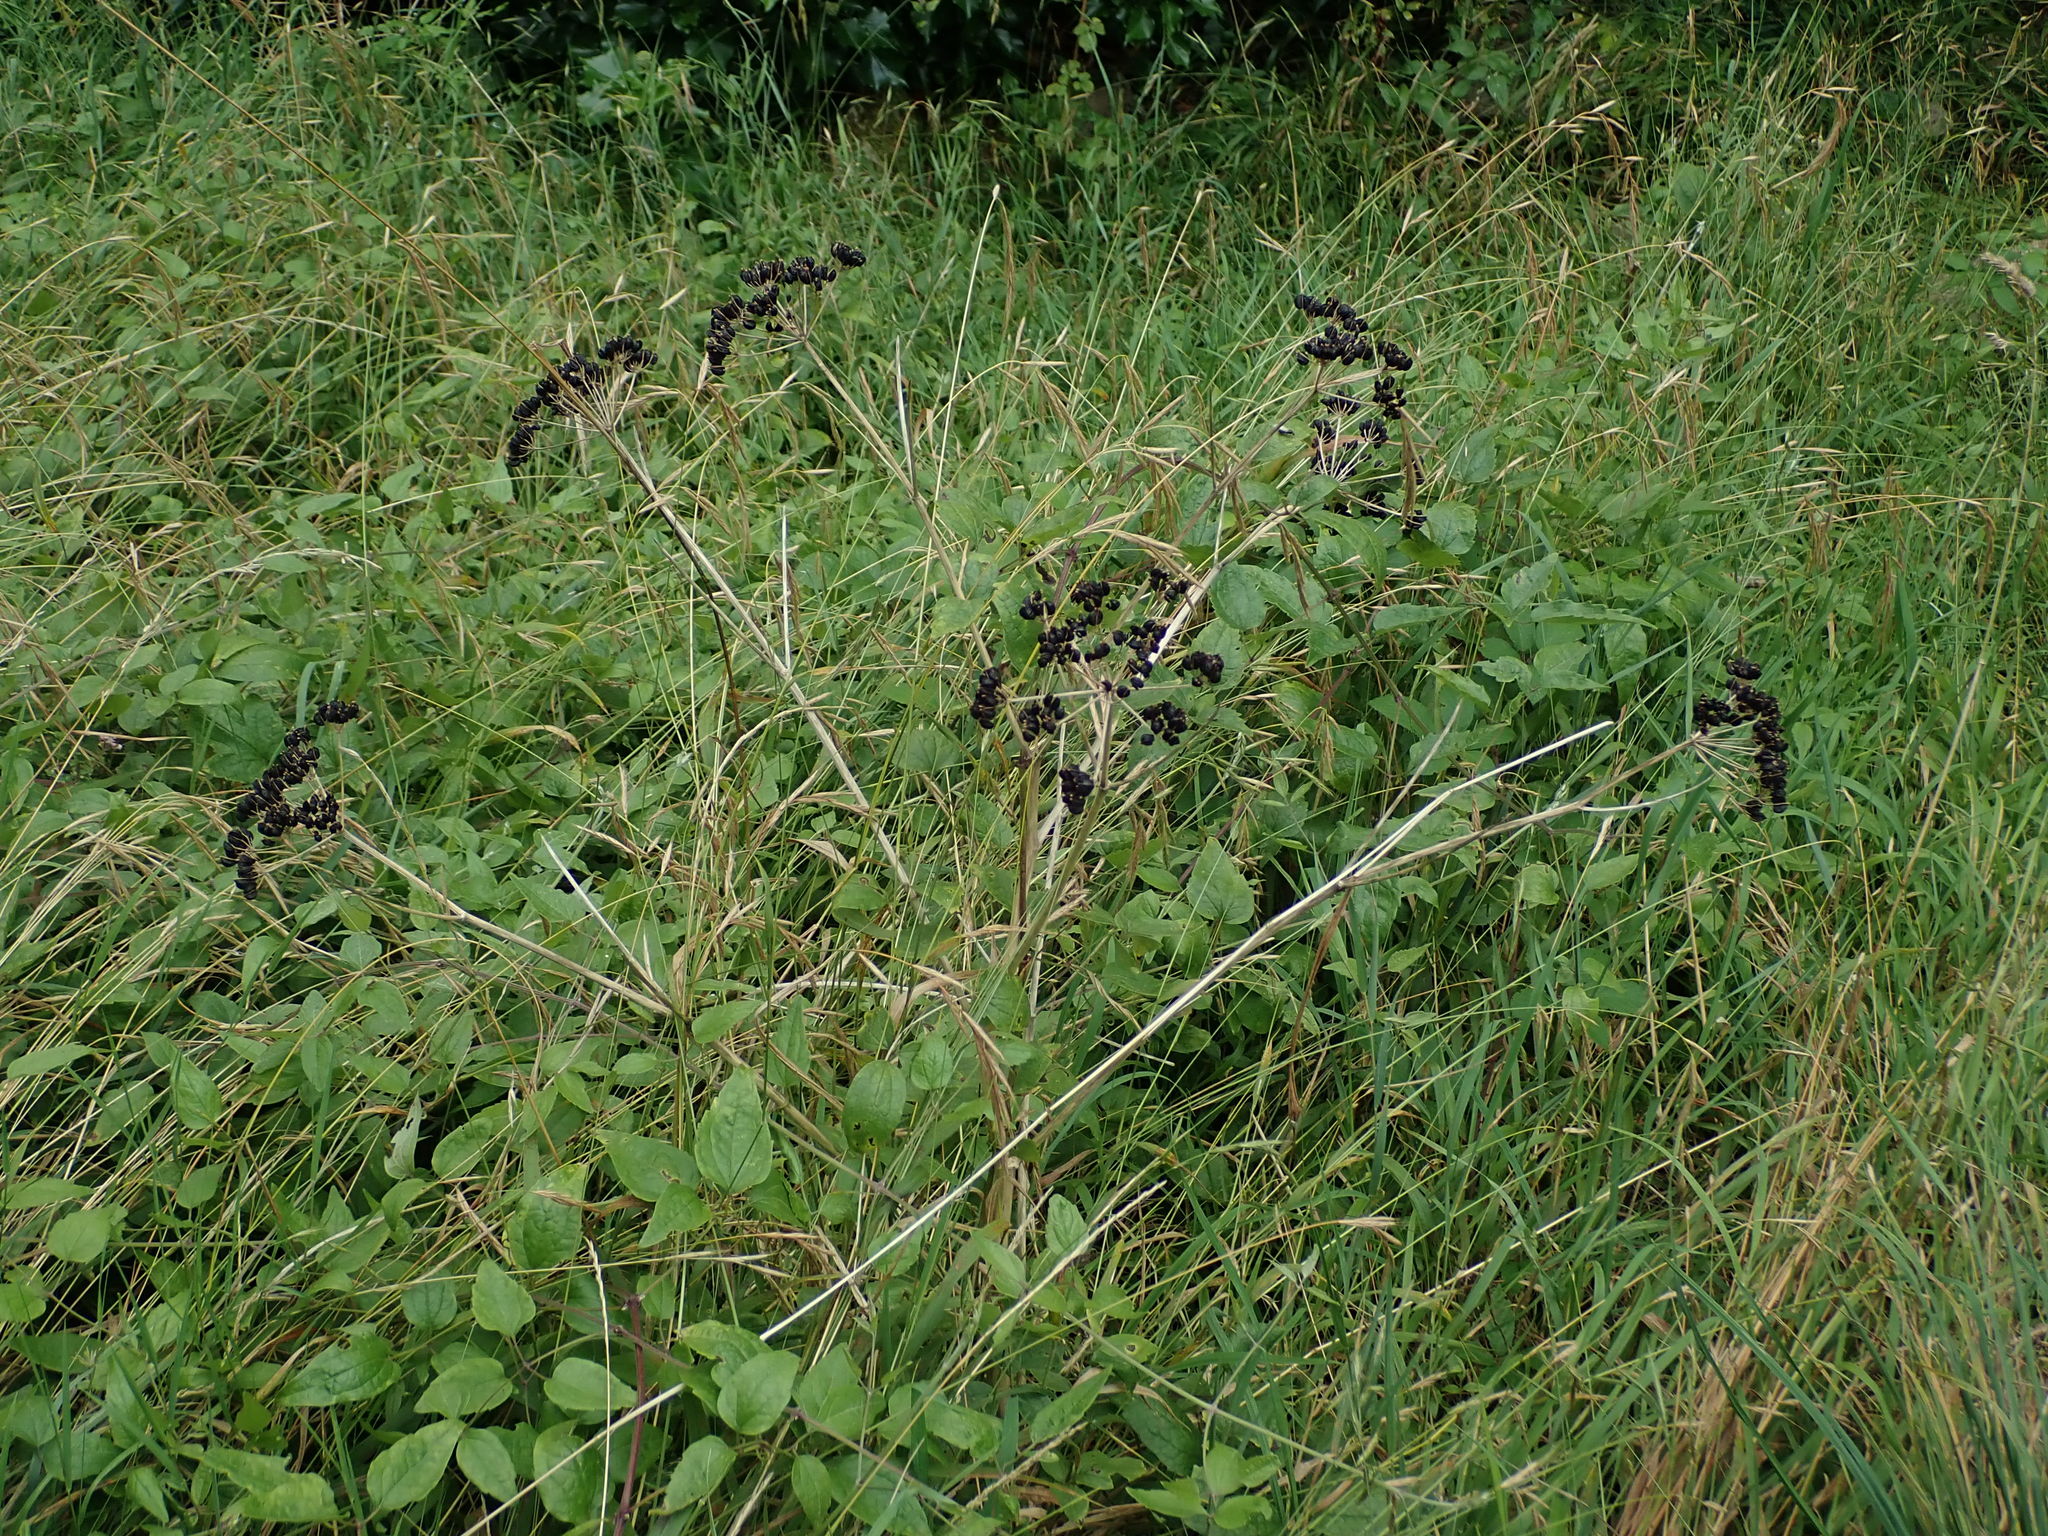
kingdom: Plantae
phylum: Tracheophyta
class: Magnoliopsida
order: Apiales
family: Apiaceae
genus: Smyrnium
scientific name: Smyrnium olusatrum
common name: Alexanders
